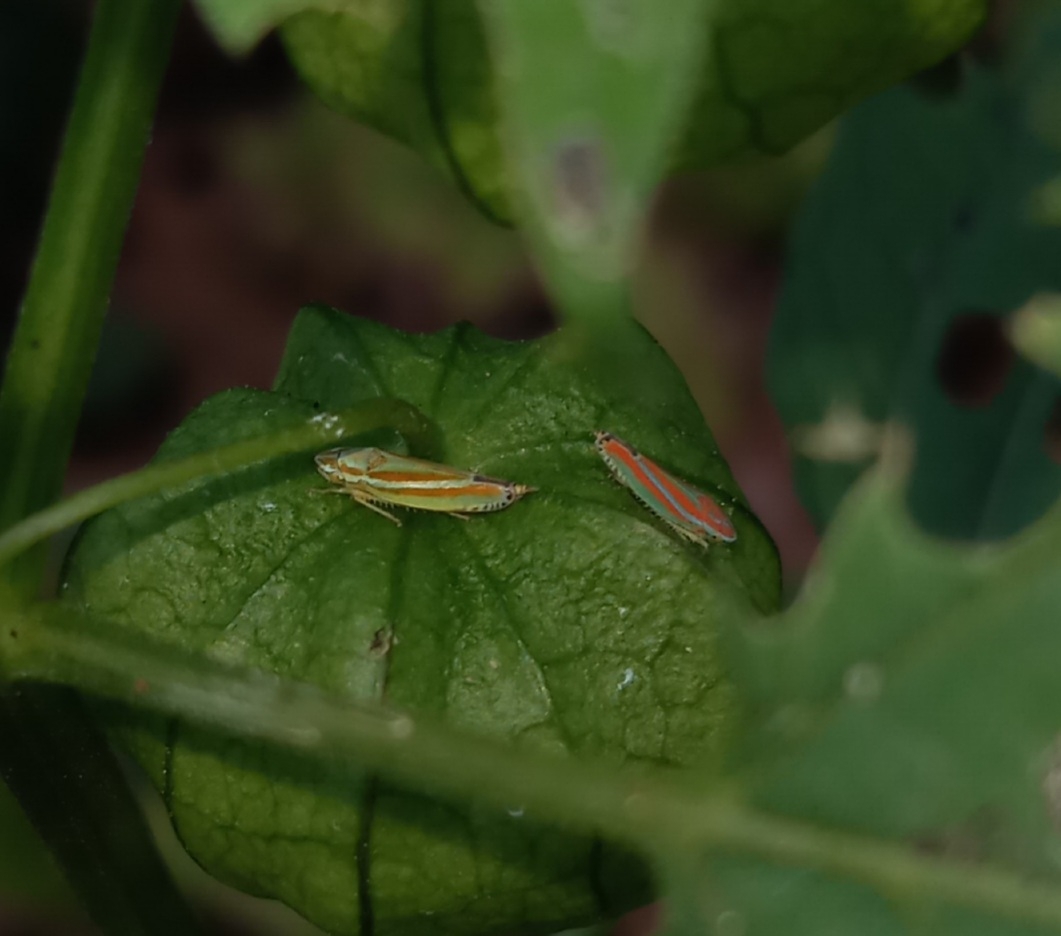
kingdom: Animalia
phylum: Arthropoda
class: Insecta
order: Hemiptera
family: Cicadellidae
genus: Graphocephala
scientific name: Graphocephala versuta
